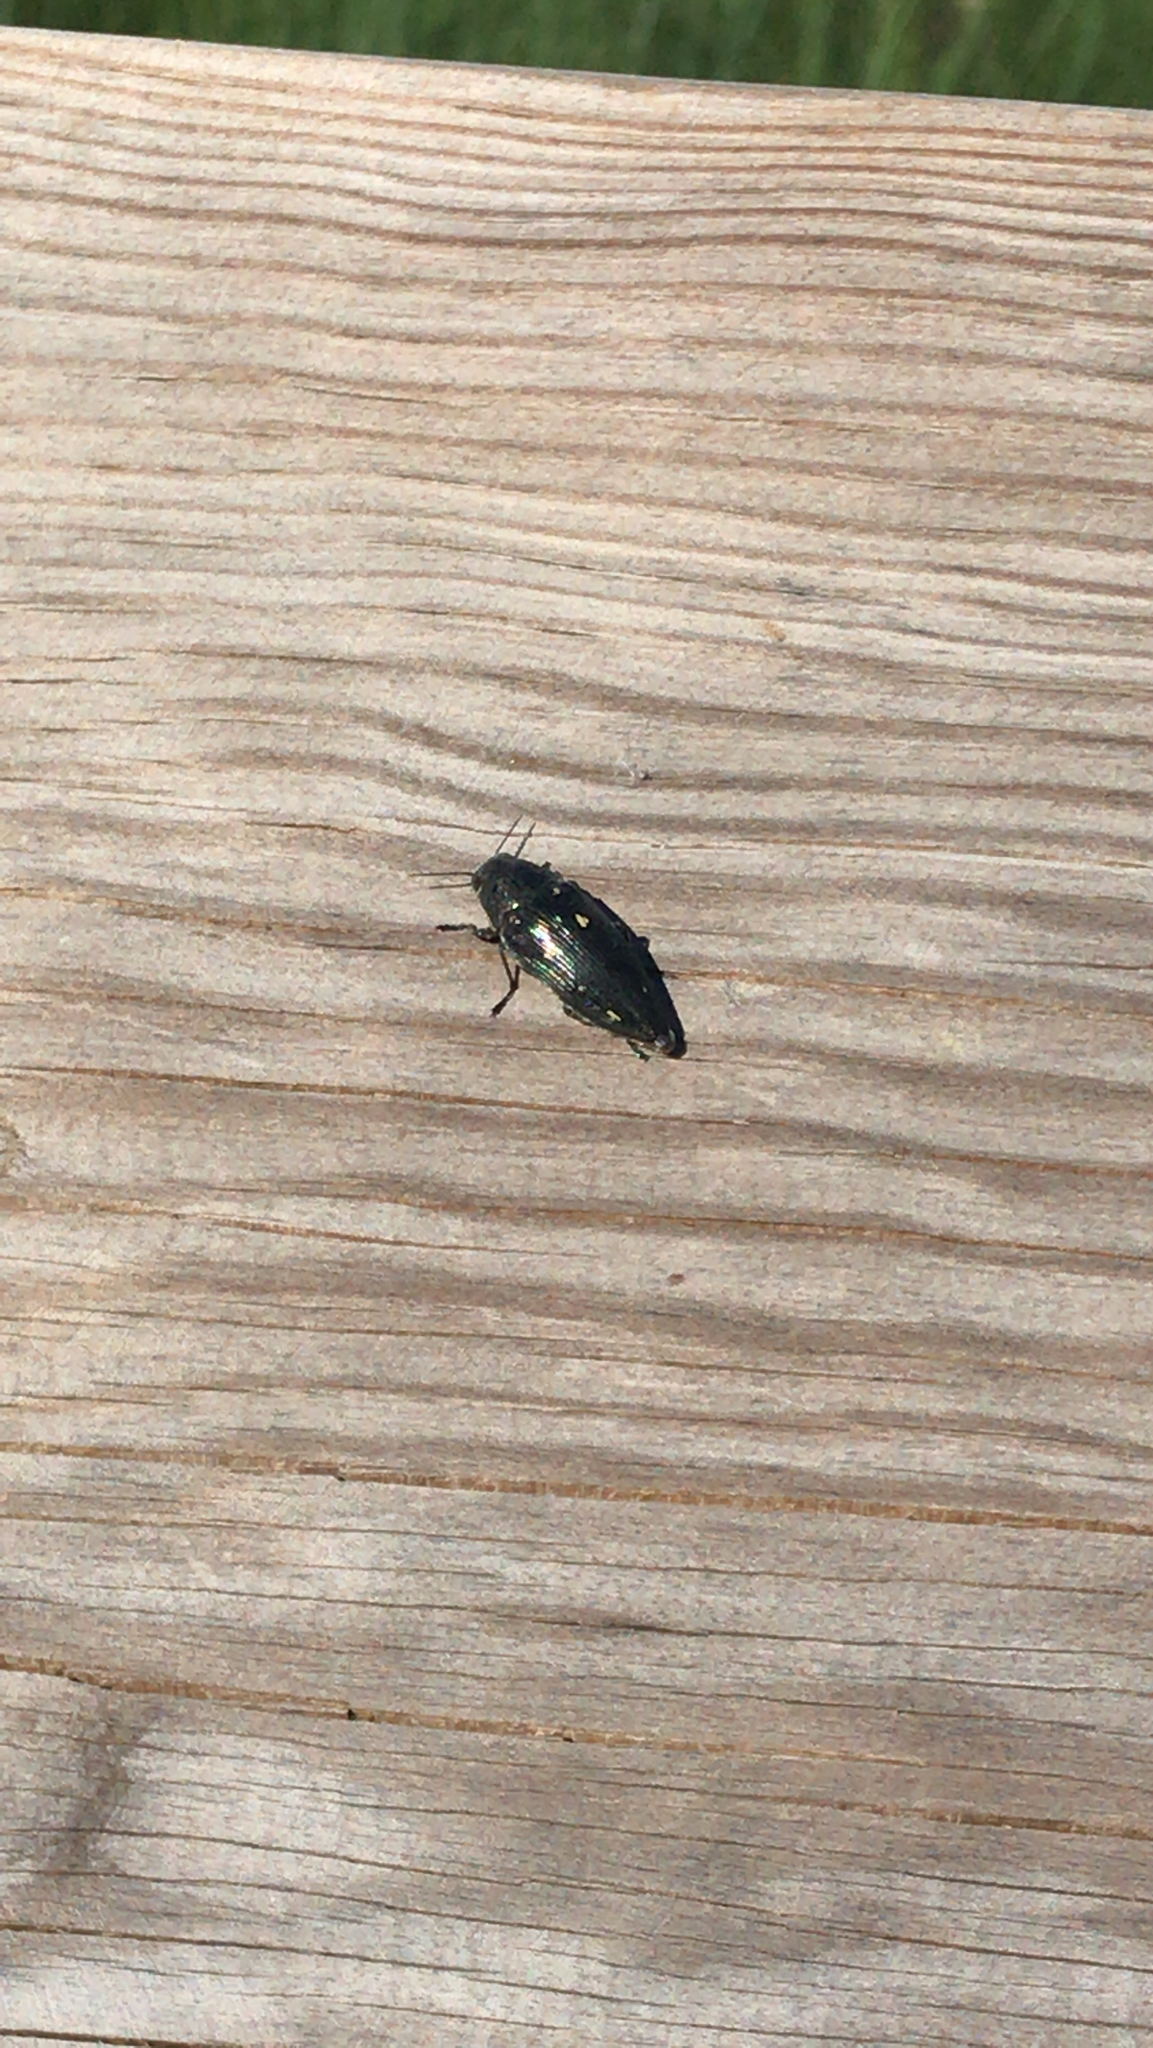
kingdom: Animalia
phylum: Arthropoda
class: Insecta
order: Coleoptera
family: Buprestidae
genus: Buprestis
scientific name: Buprestis novemmaculata
